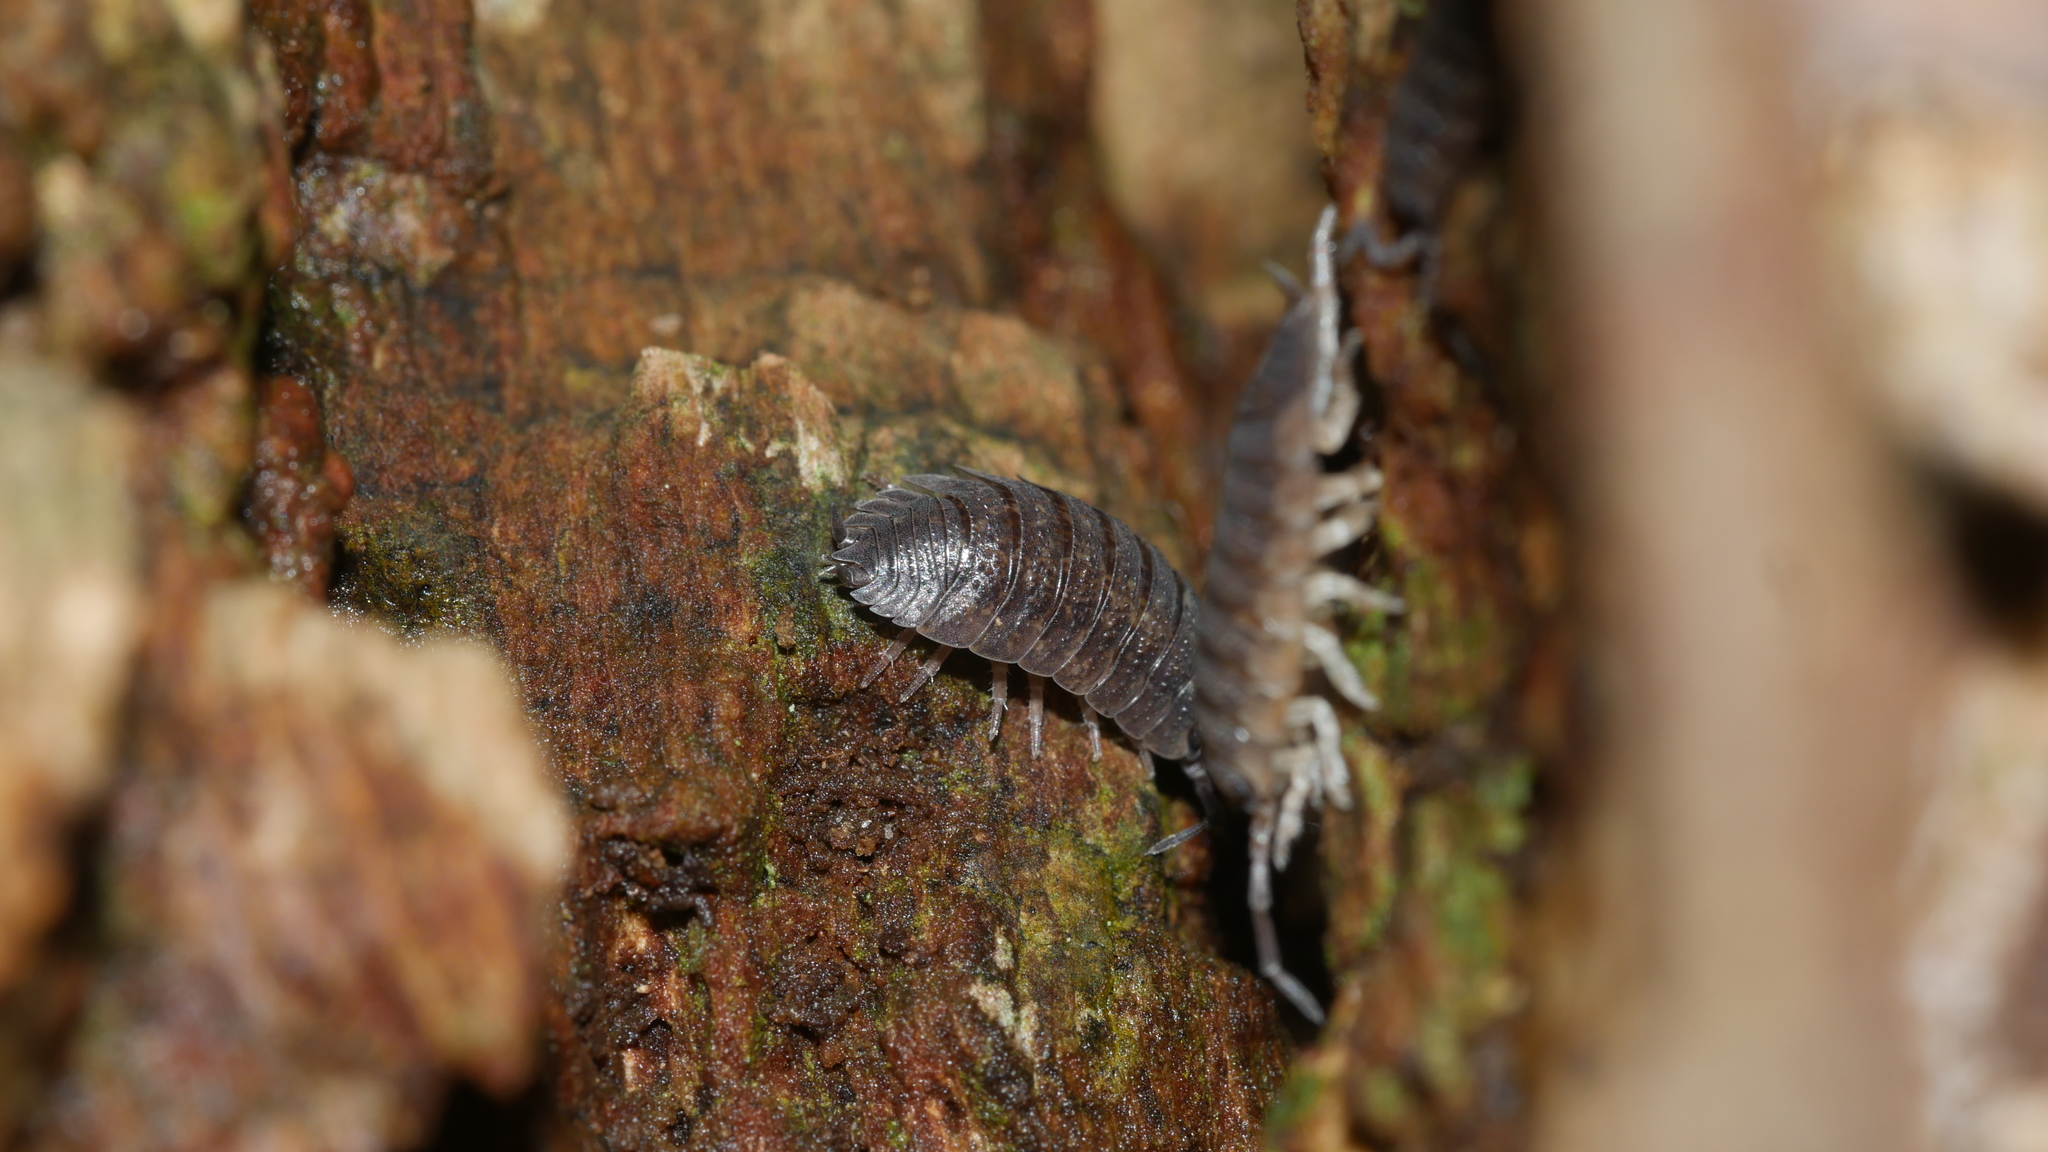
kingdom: Animalia
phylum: Arthropoda
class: Malacostraca
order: Isopoda
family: Porcellionidae
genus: Porcellio
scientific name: Porcellio scaber
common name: Common rough woodlouse
